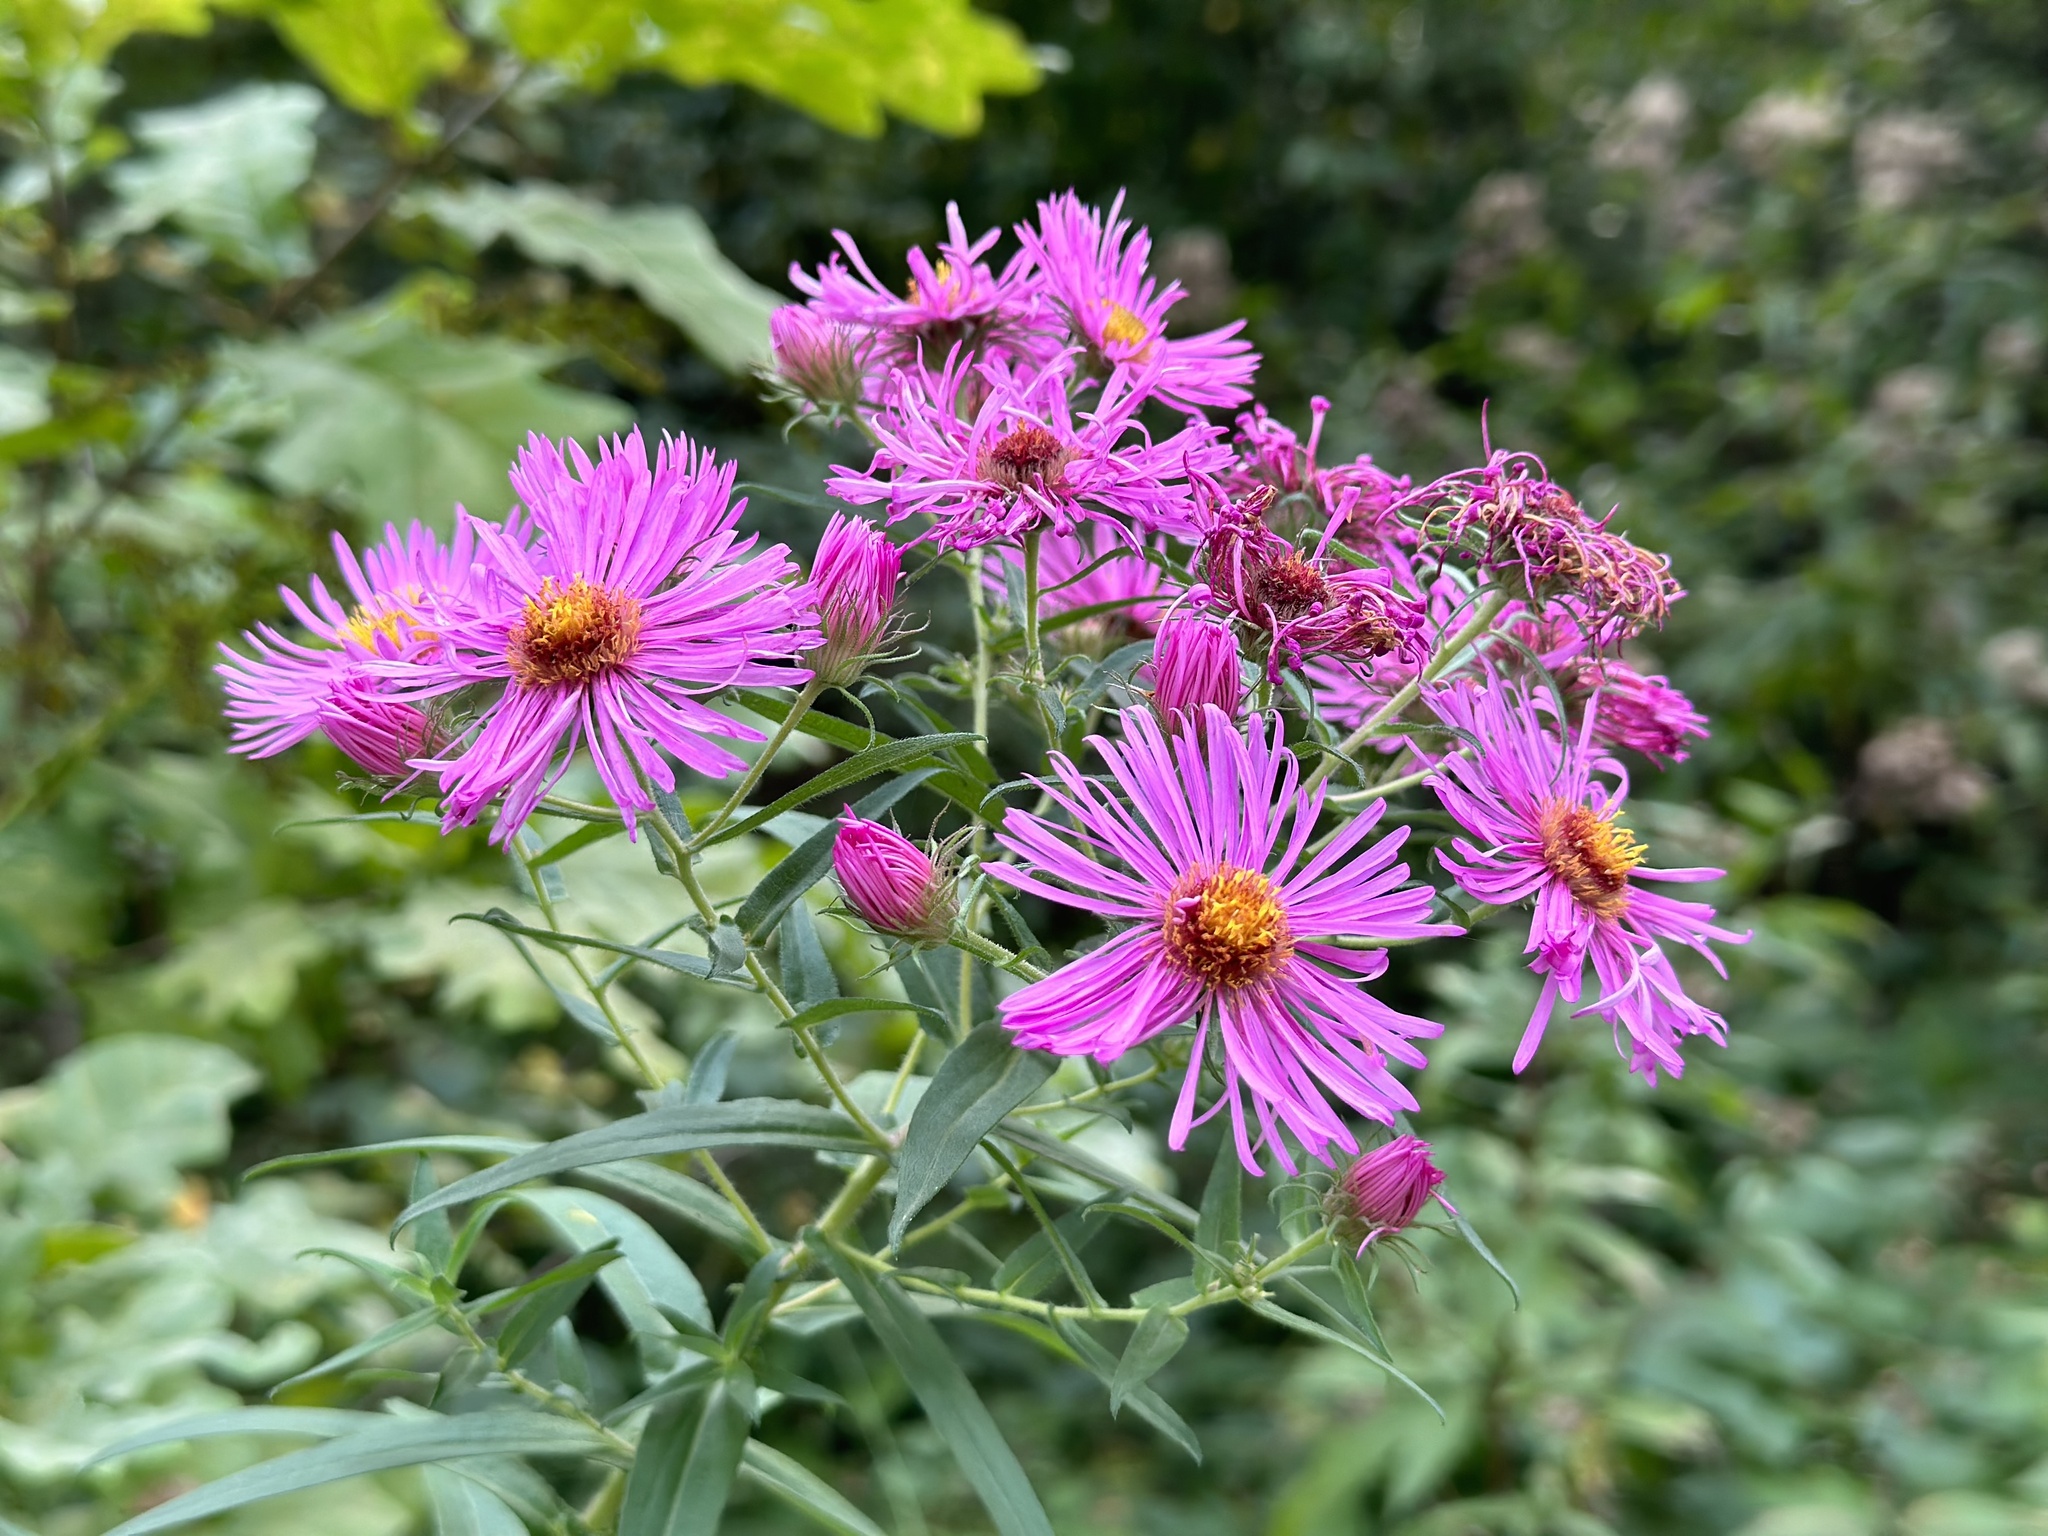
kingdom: Plantae
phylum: Tracheophyta
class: Magnoliopsida
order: Asterales
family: Asteraceae
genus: Symphyotrichum
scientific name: Symphyotrichum novae-angliae
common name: Michaelmas daisy
